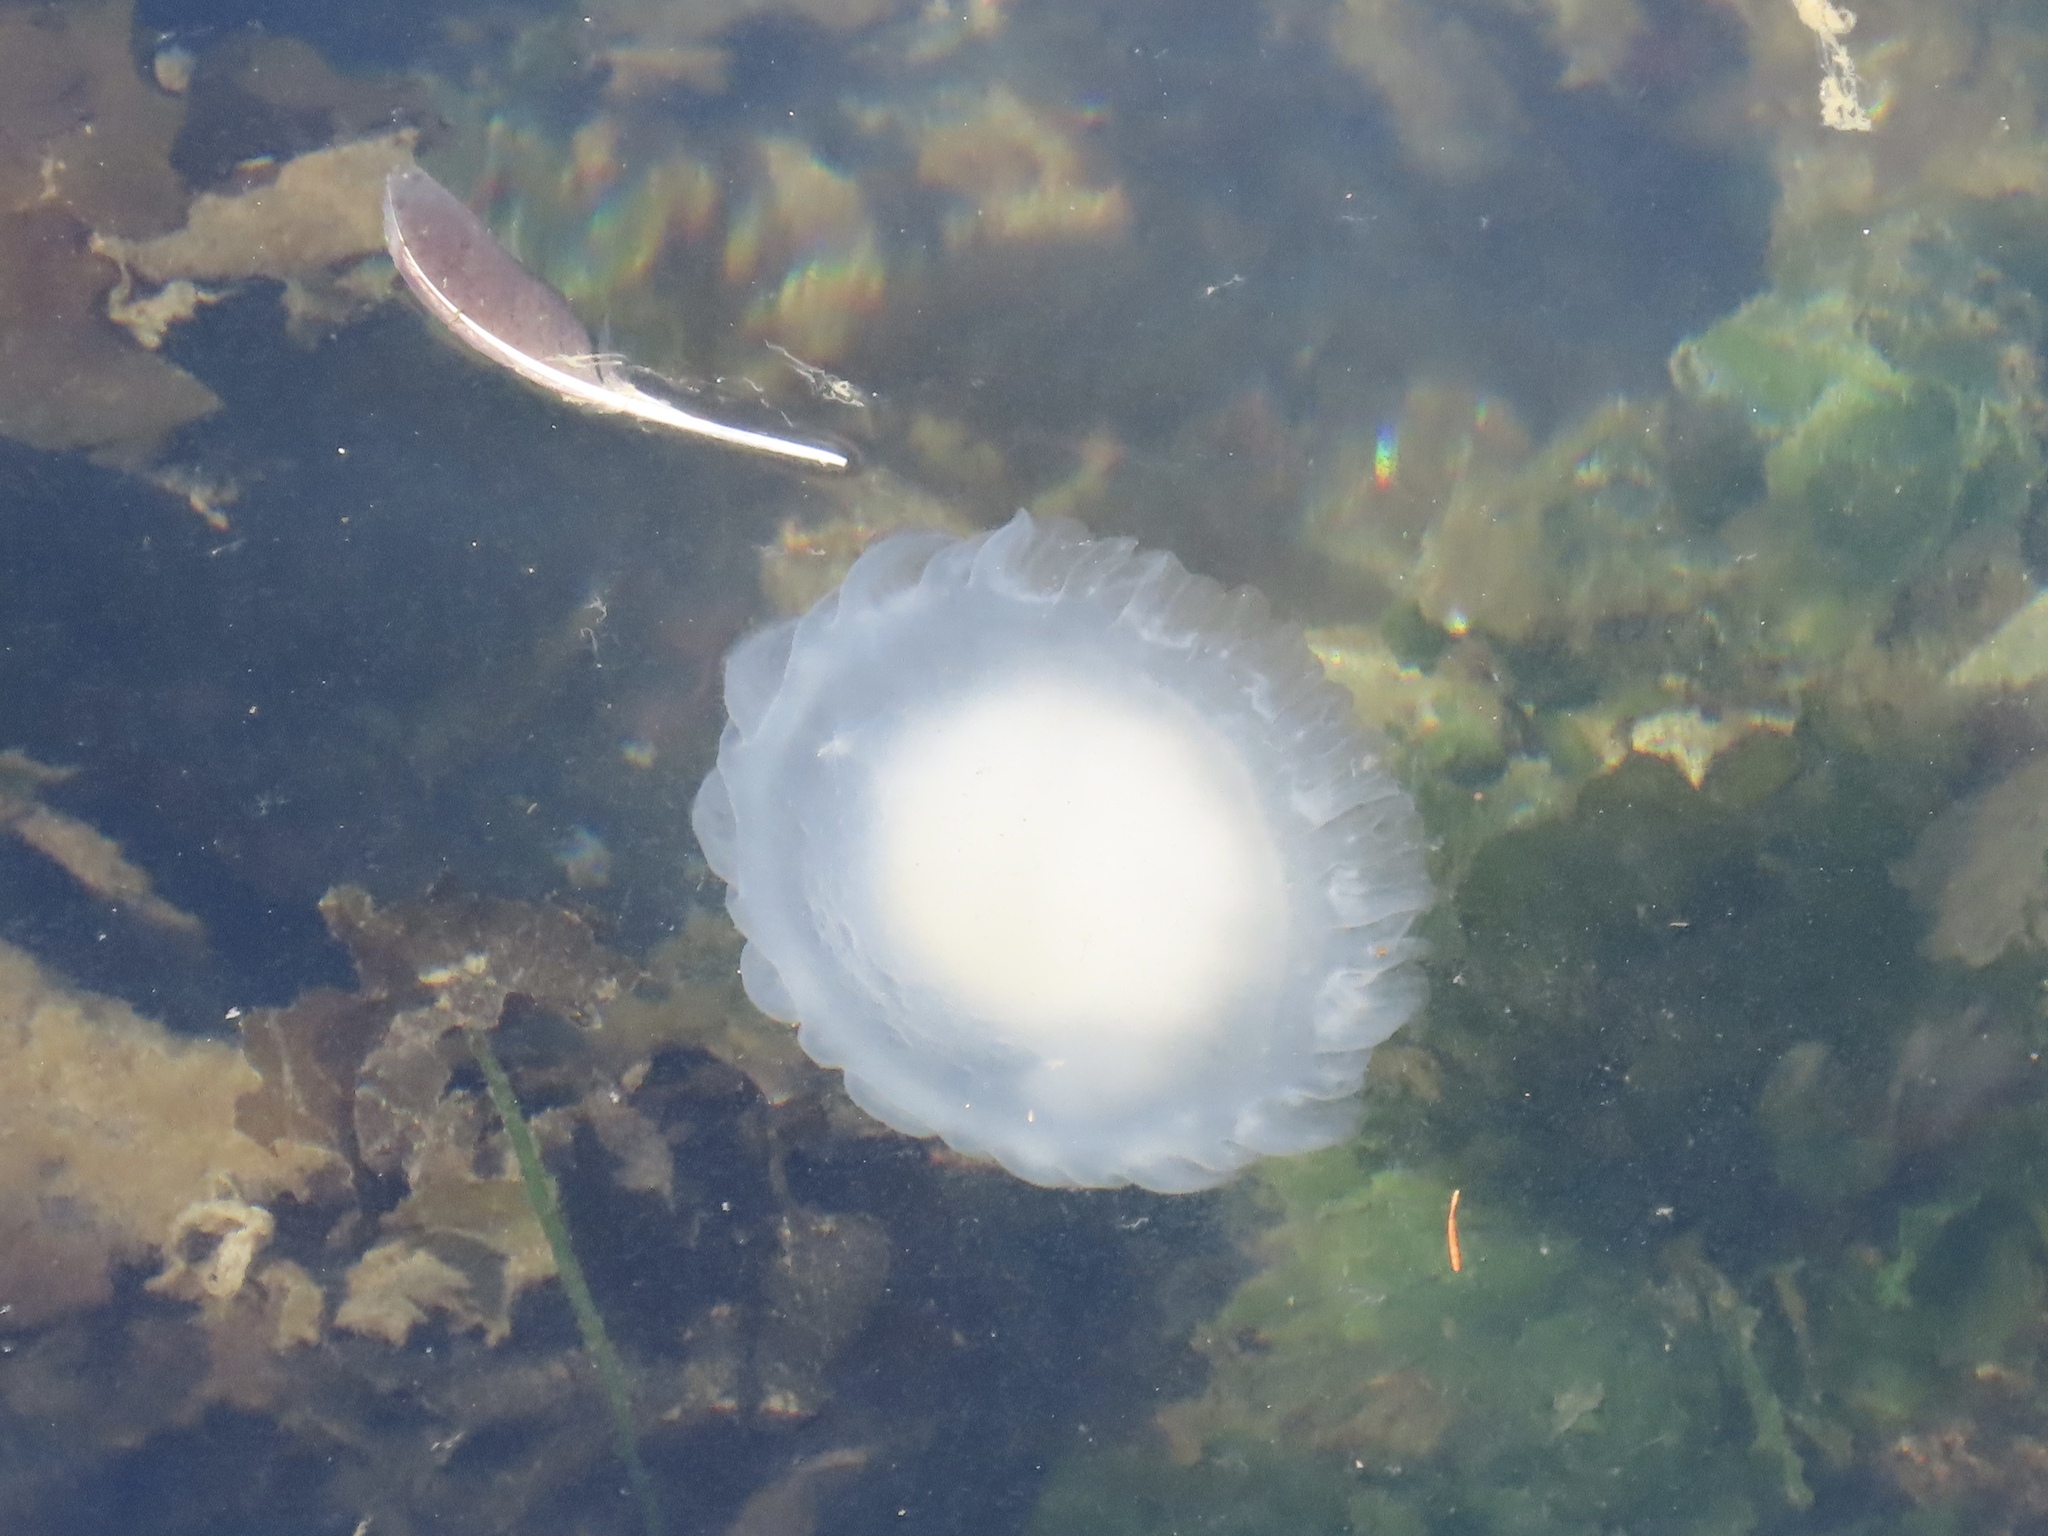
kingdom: Animalia
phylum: Cnidaria
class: Scyphozoa
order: Semaeostomeae
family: Phacellophoridae
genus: Phacellophora
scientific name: Phacellophora camtschatica
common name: Fried-egg jellyfish
